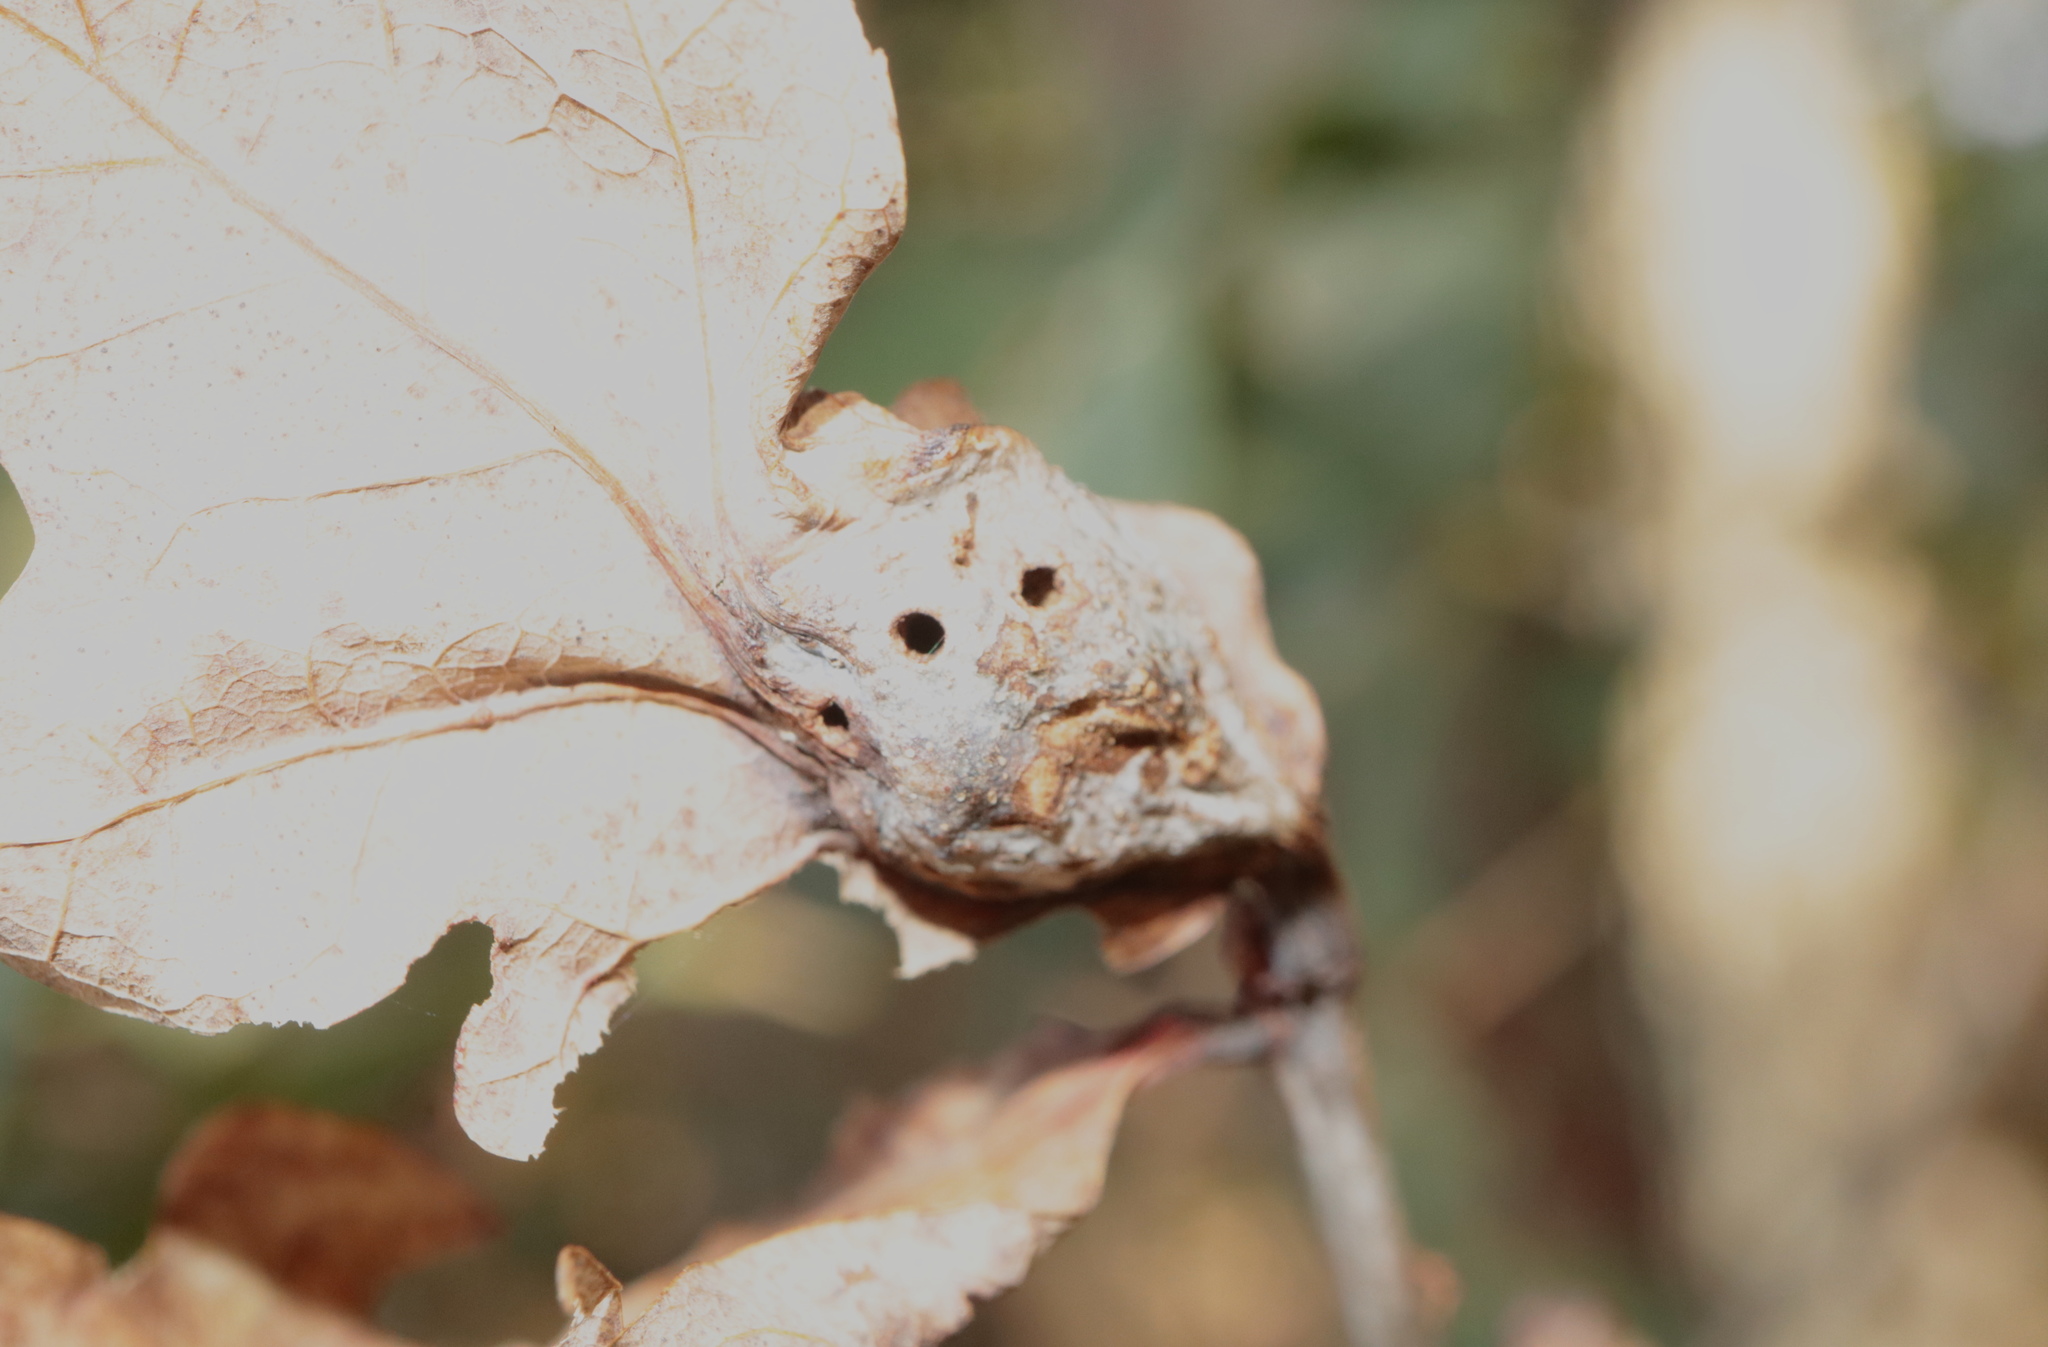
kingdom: Animalia
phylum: Arthropoda
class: Insecta
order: Hymenoptera
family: Cynipidae
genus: Andricus
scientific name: Andricus
